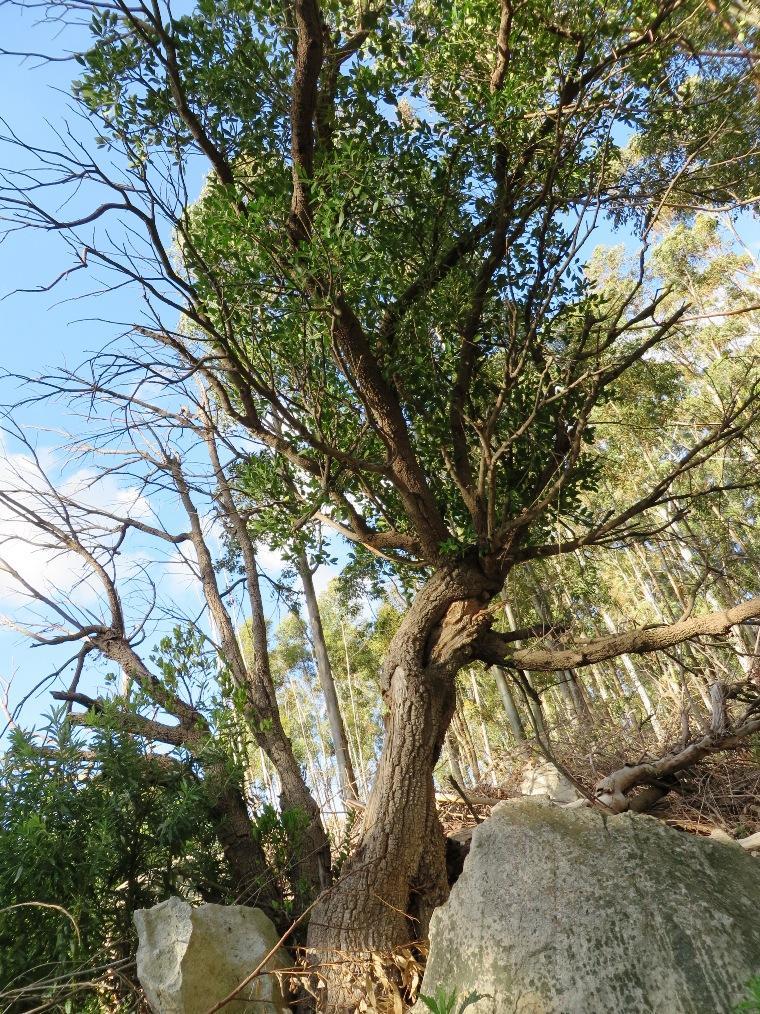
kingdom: Plantae
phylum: Tracheophyta
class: Magnoliopsida
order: Celastrales
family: Celastraceae
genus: Gymnosporia
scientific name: Gymnosporia laurina
